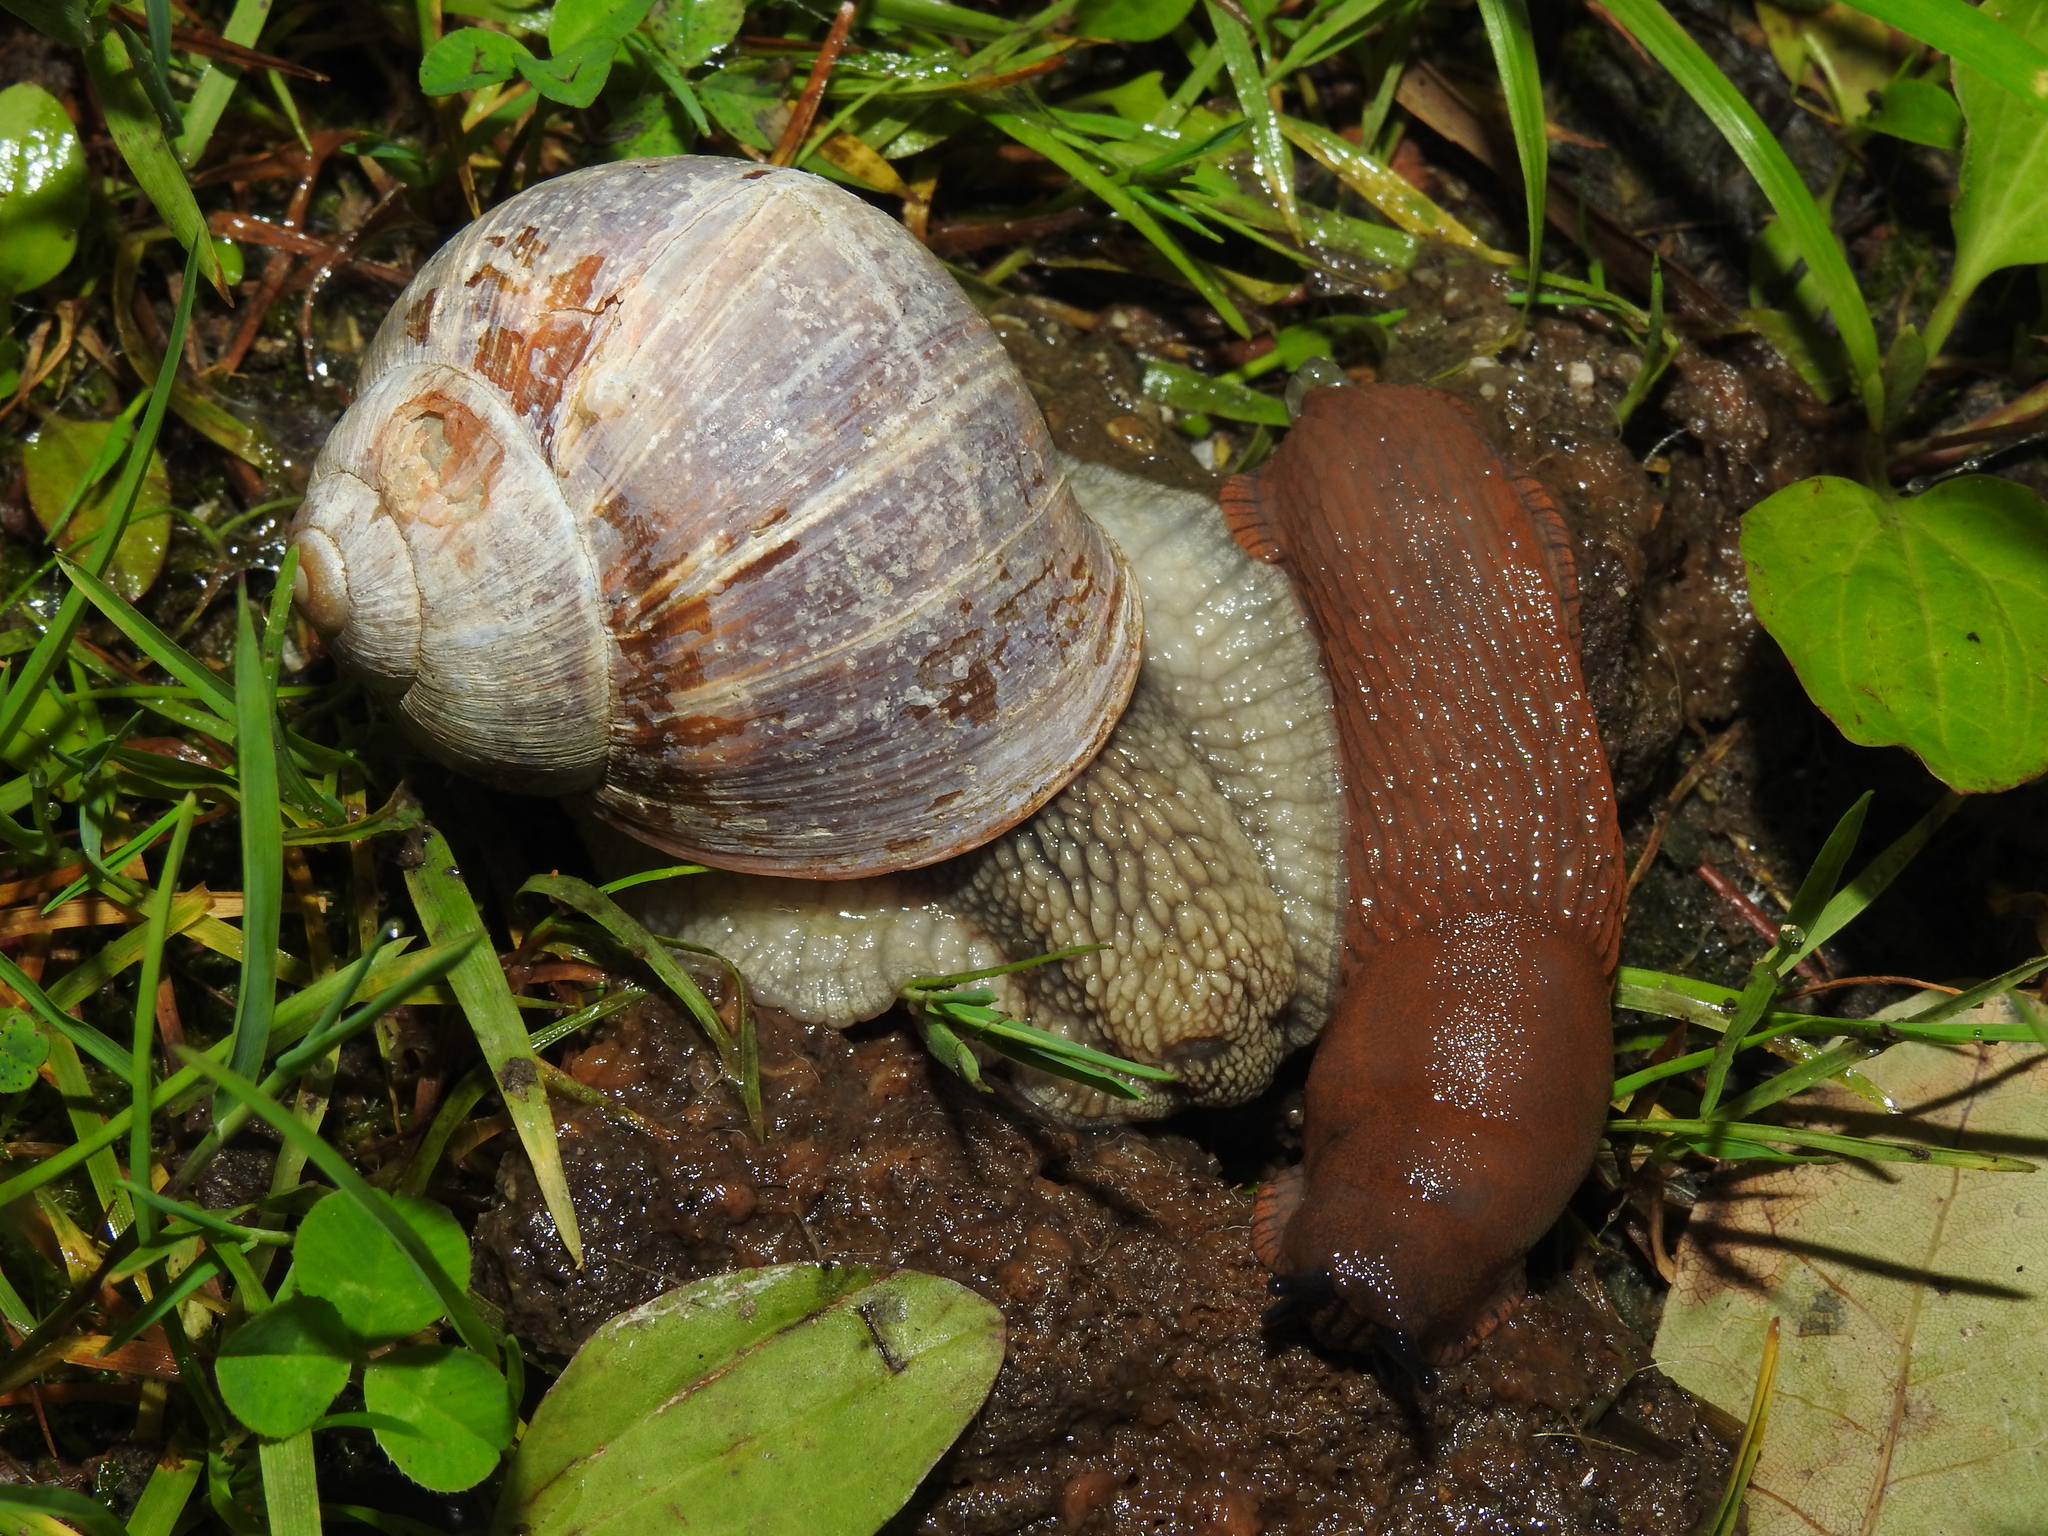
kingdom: Animalia
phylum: Mollusca
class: Gastropoda
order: Stylommatophora
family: Helicidae
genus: Helix
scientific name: Helix pomatia
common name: Roman snail
